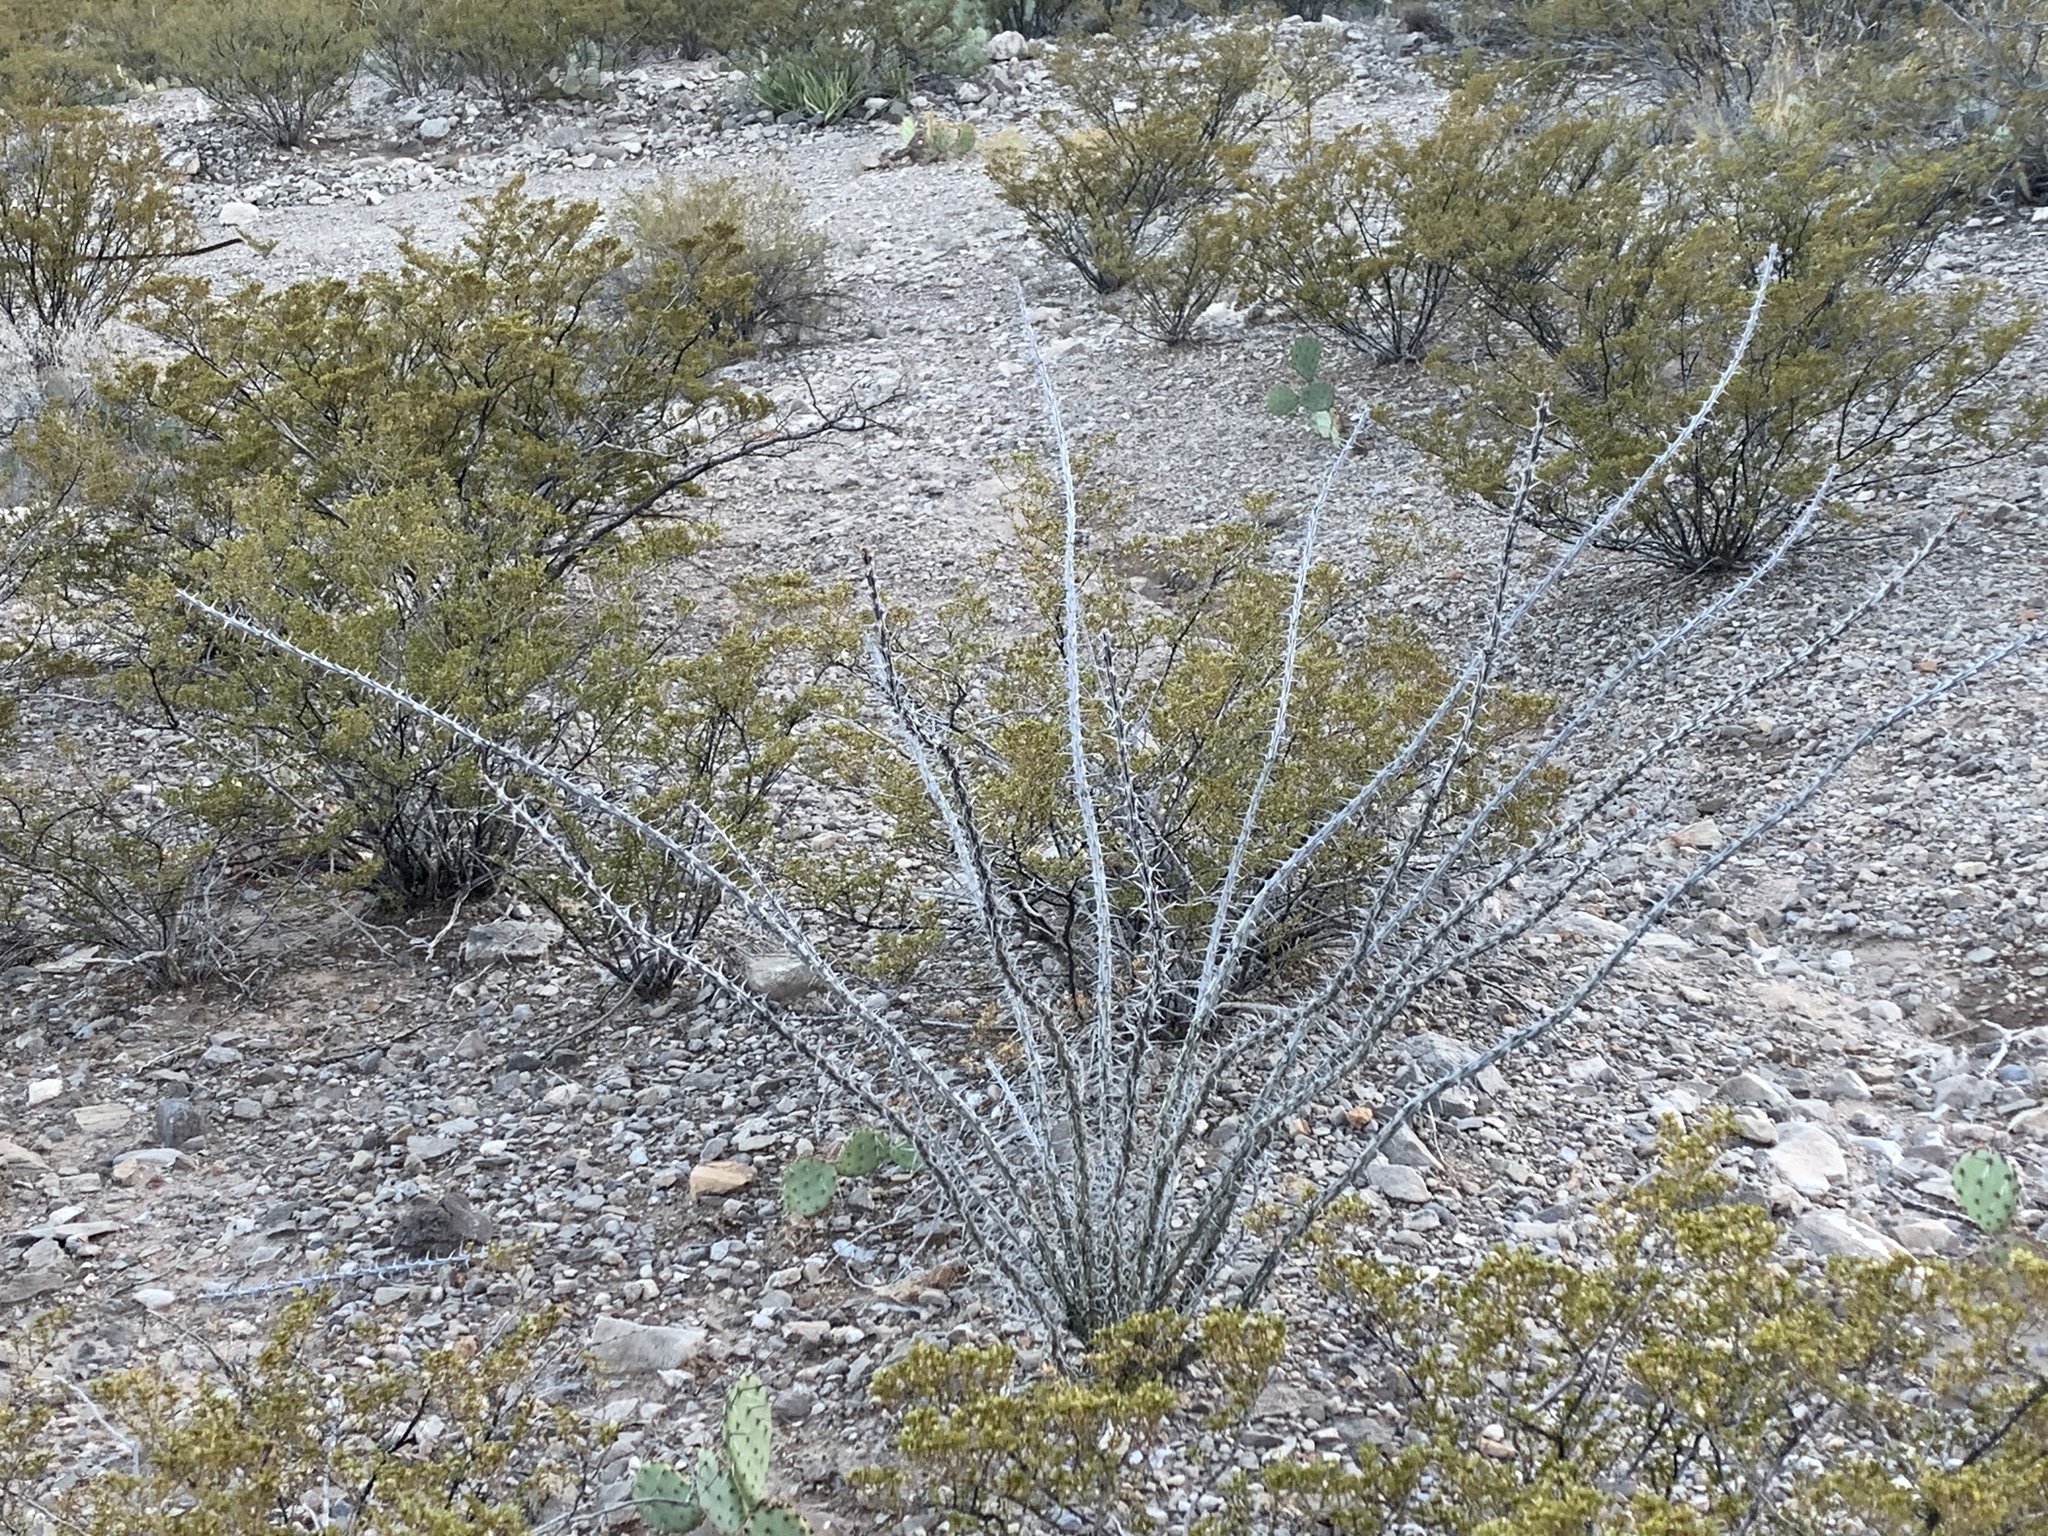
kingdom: Plantae
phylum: Tracheophyta
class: Magnoliopsida
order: Ericales
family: Fouquieriaceae
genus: Fouquieria
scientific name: Fouquieria splendens
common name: Vine-cactus
